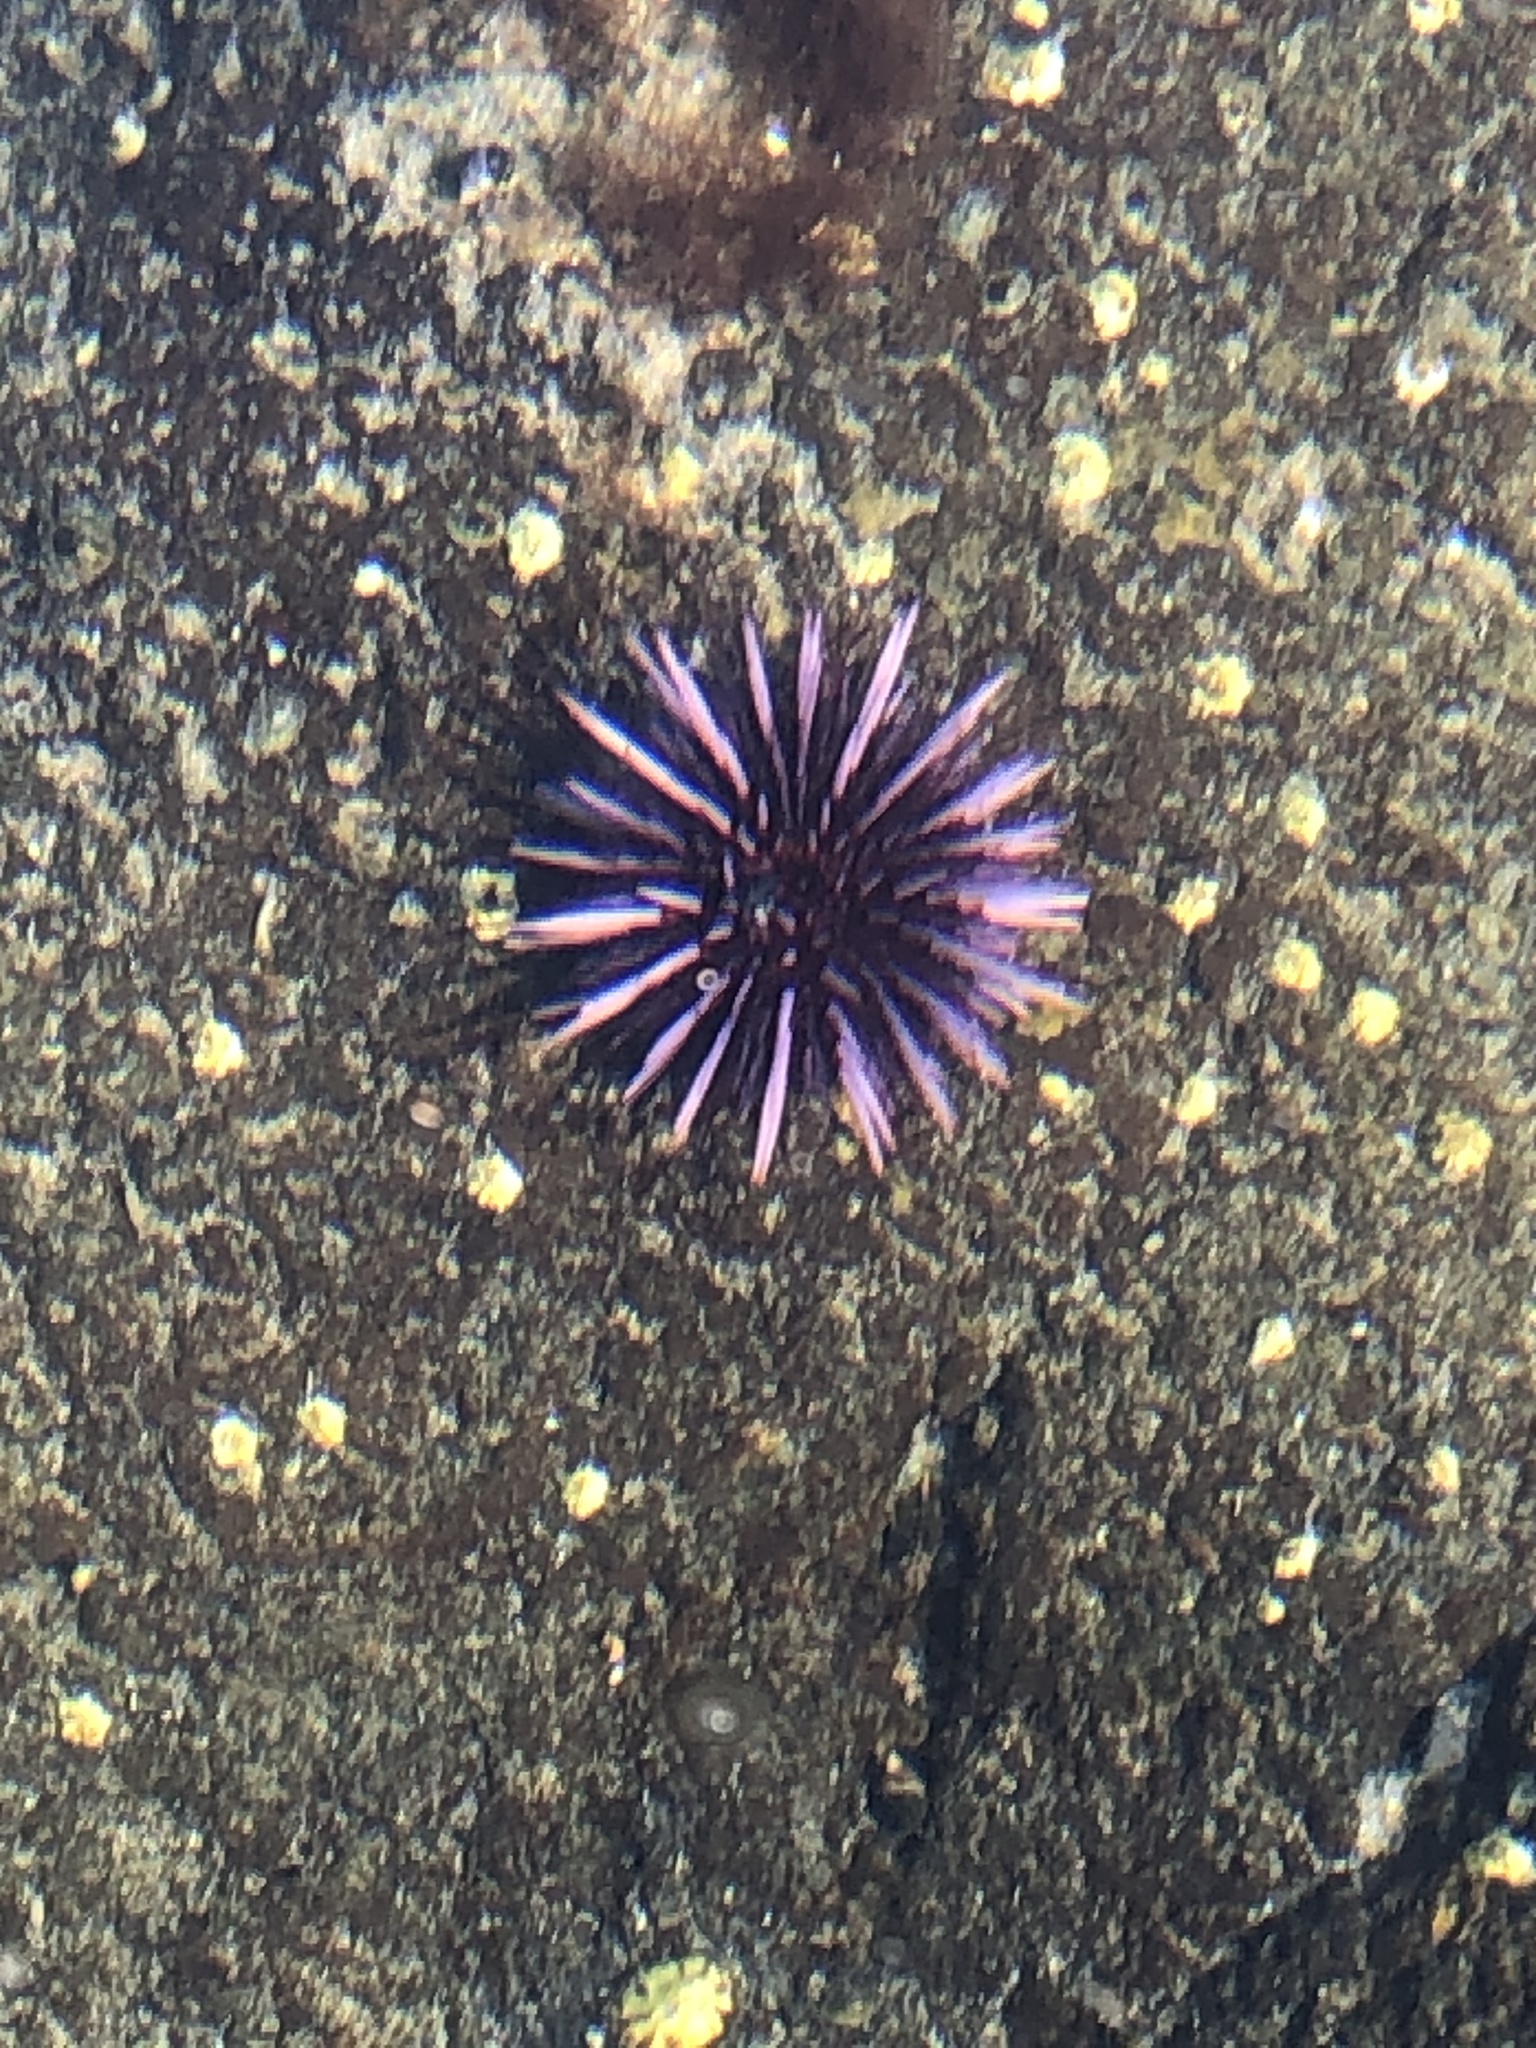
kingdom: Animalia
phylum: Echinodermata
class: Echinoidea
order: Camarodonta
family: Strongylocentrotidae
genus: Strongylocentrotus
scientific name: Strongylocentrotus purpuratus
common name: Purple sea urchin
